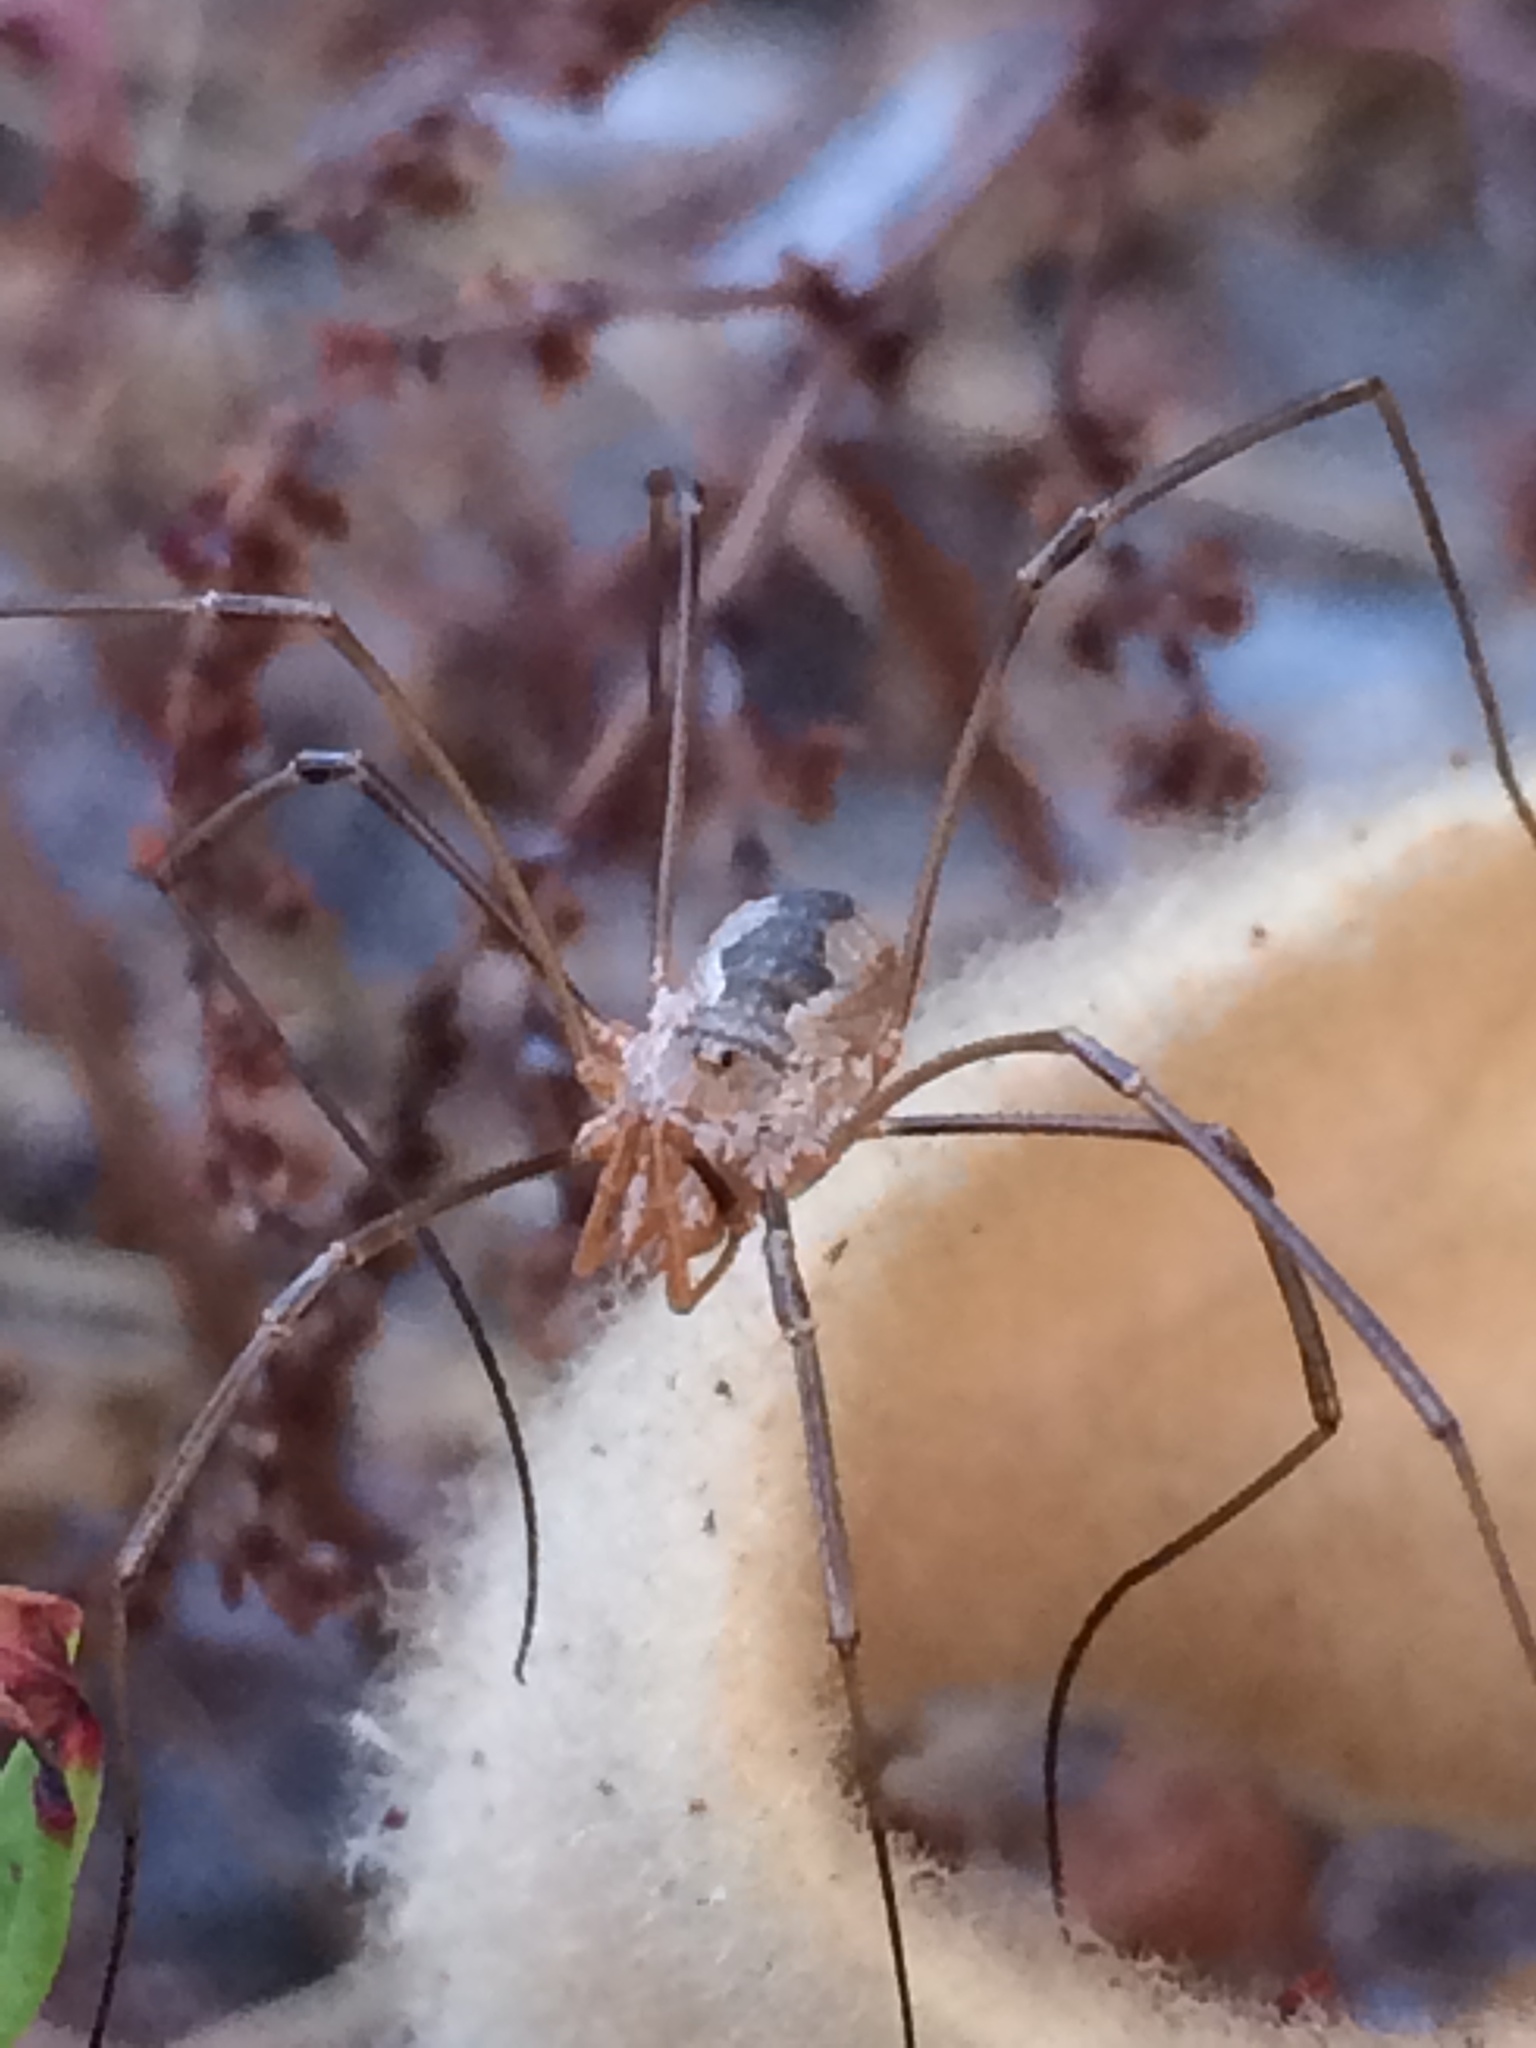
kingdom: Animalia
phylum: Arthropoda
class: Arachnida
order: Opiliones
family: Phalangiidae
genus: Phalangium
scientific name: Phalangium opilio
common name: Daddy longleg
